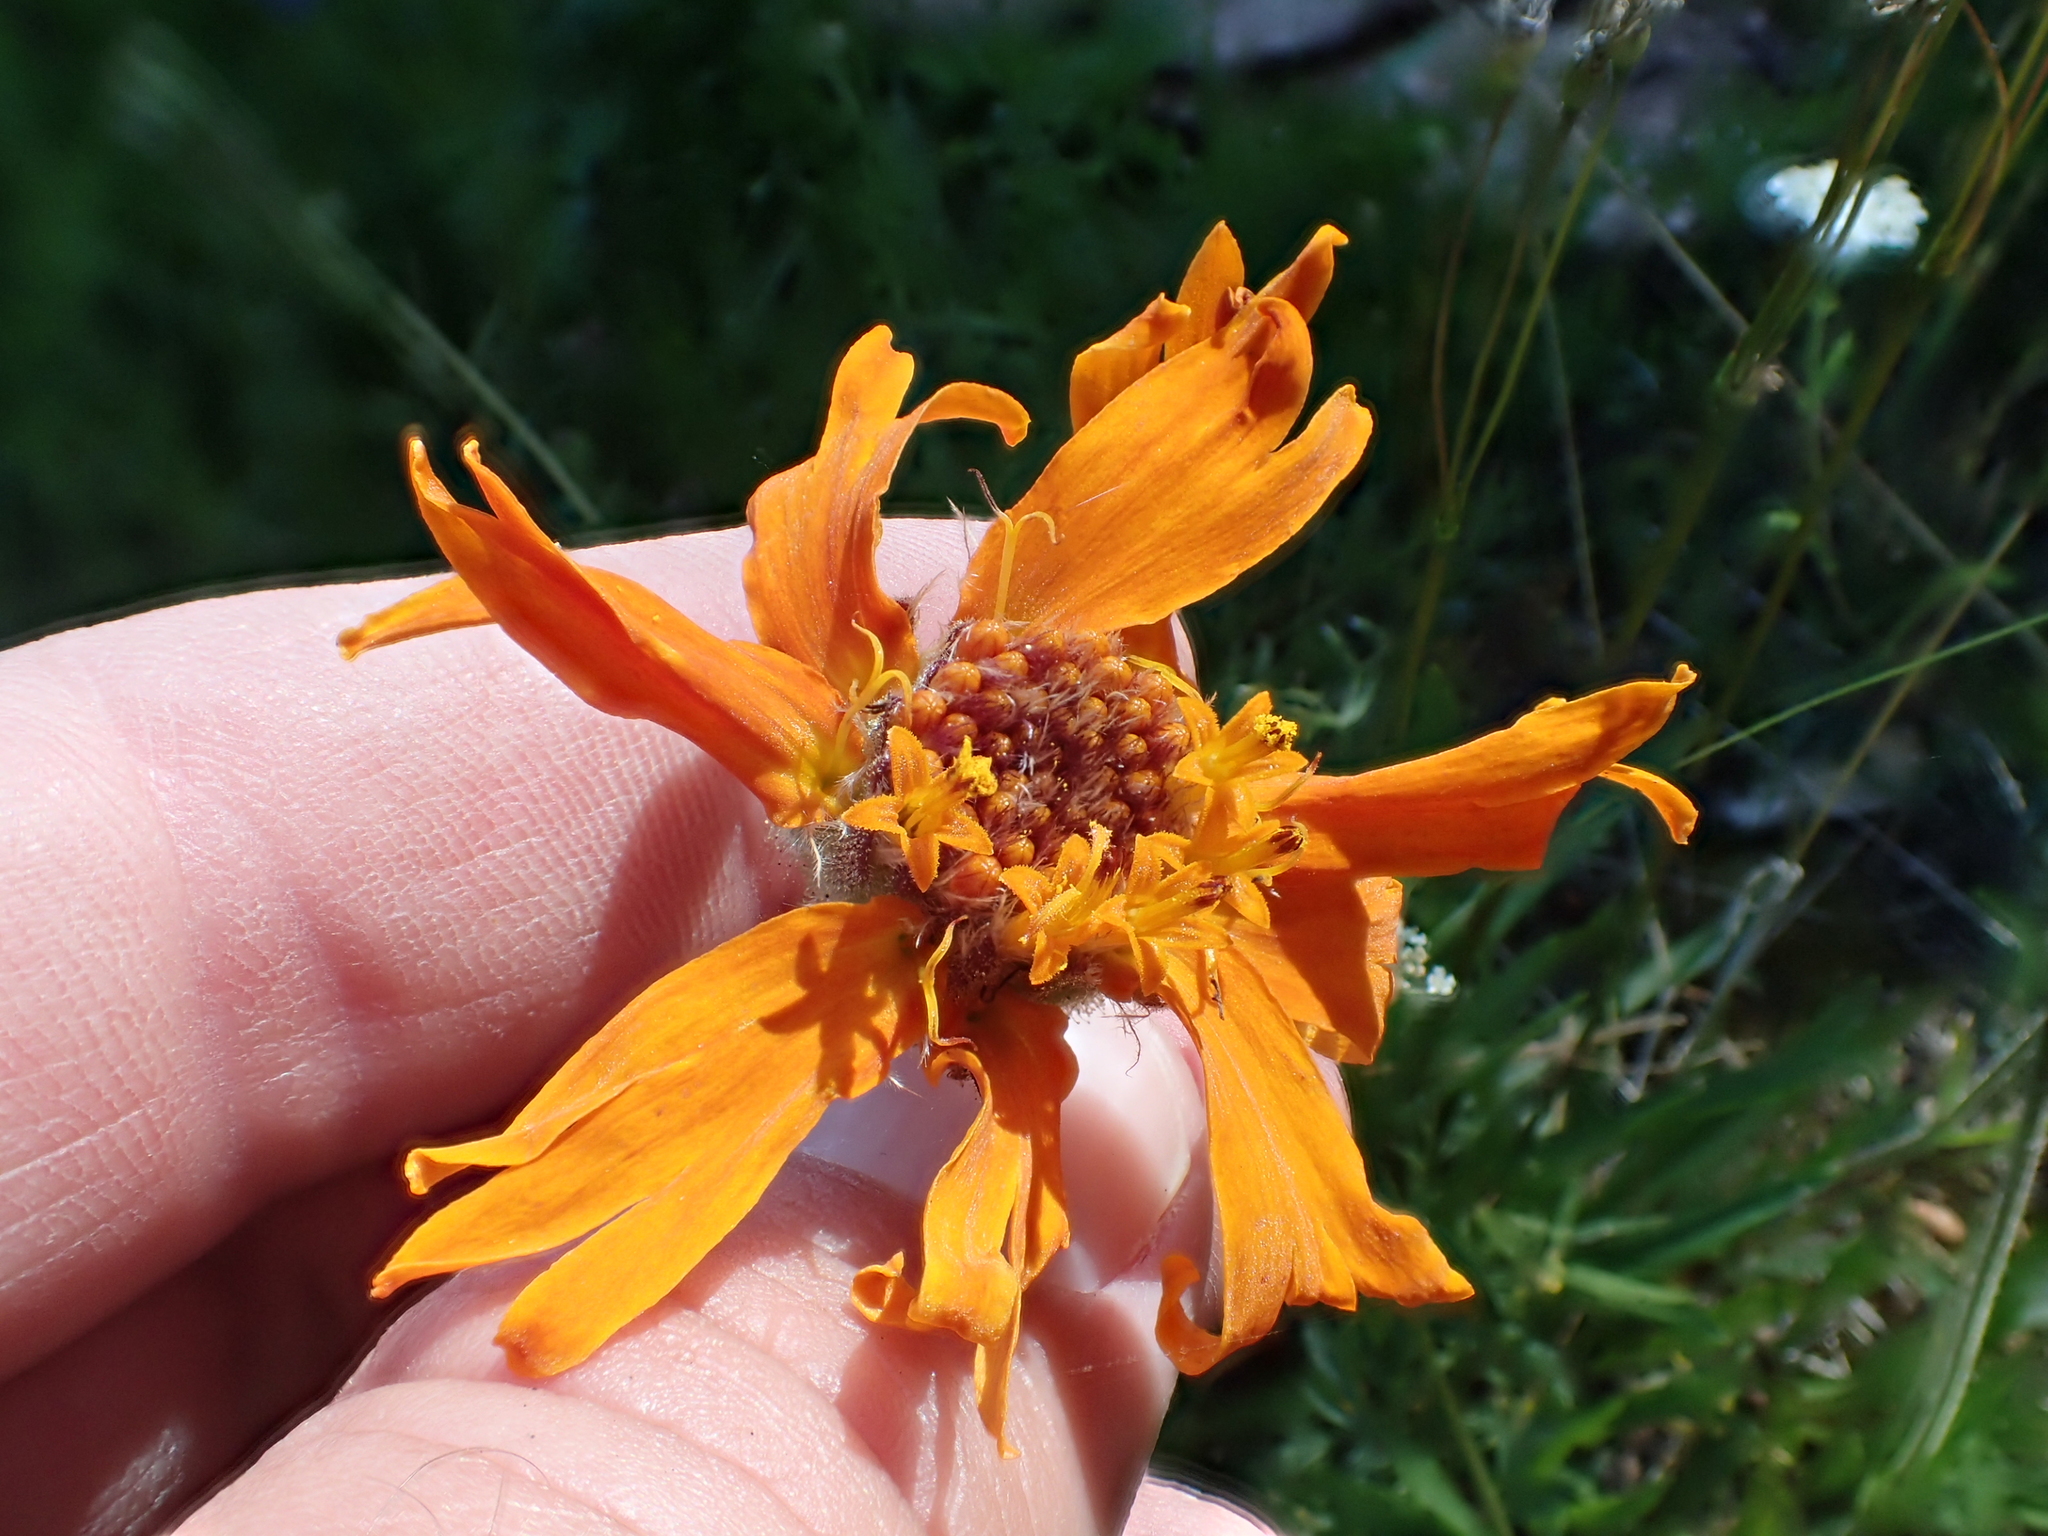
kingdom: Plantae
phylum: Tracheophyta
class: Magnoliopsida
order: Asterales
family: Asteraceae
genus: Raillardella
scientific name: Raillardella pringlei
